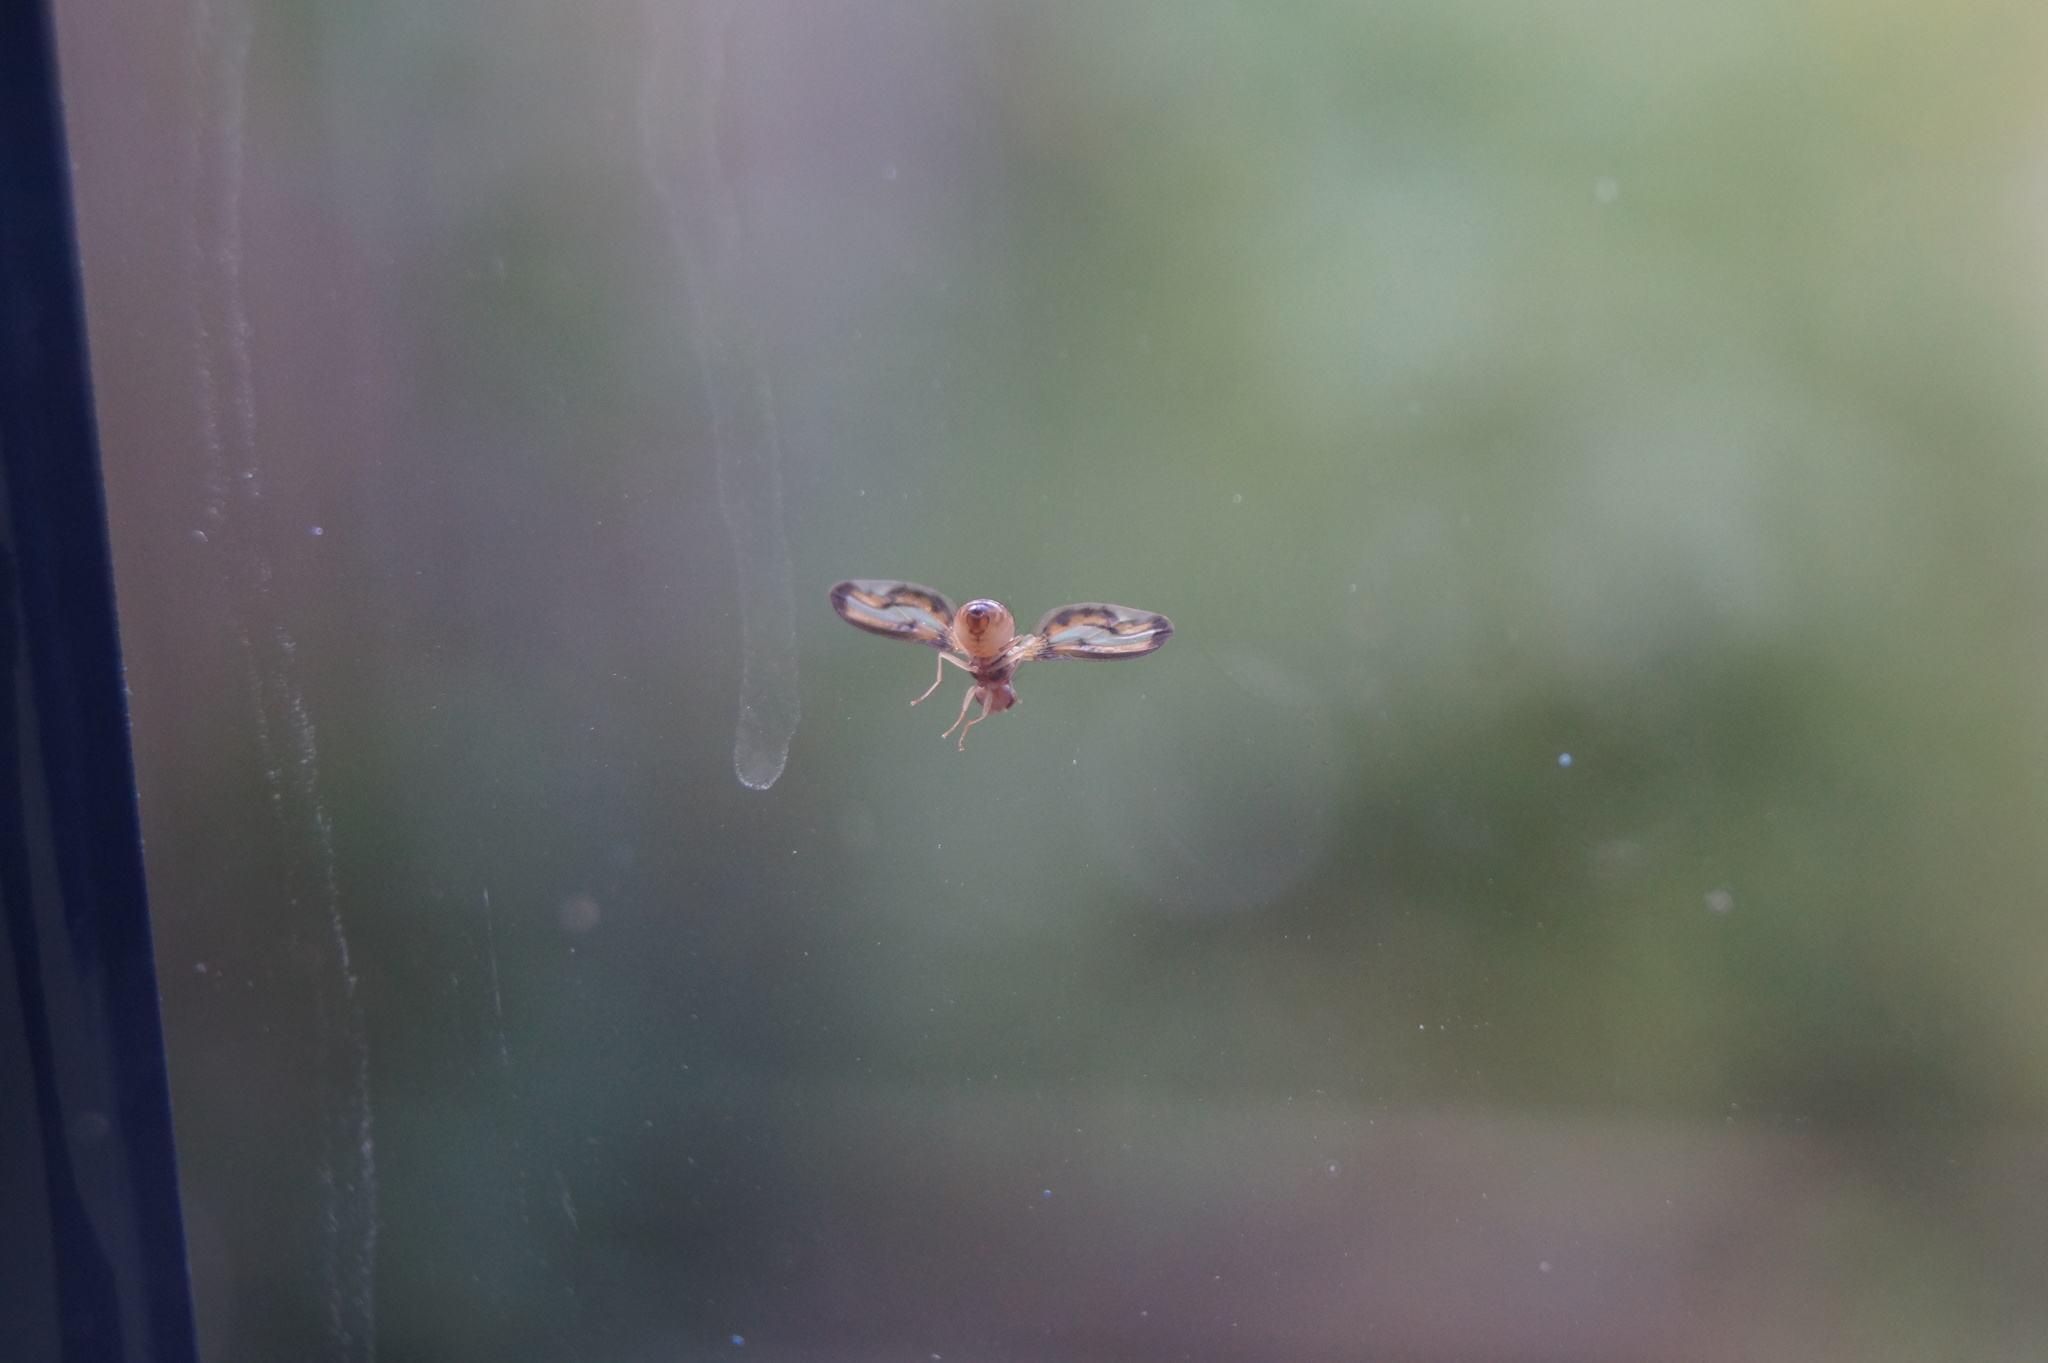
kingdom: Animalia
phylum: Arthropoda
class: Insecta
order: Diptera
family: Pallopteridae
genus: Toxonevra
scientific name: Toxonevra muliebris
